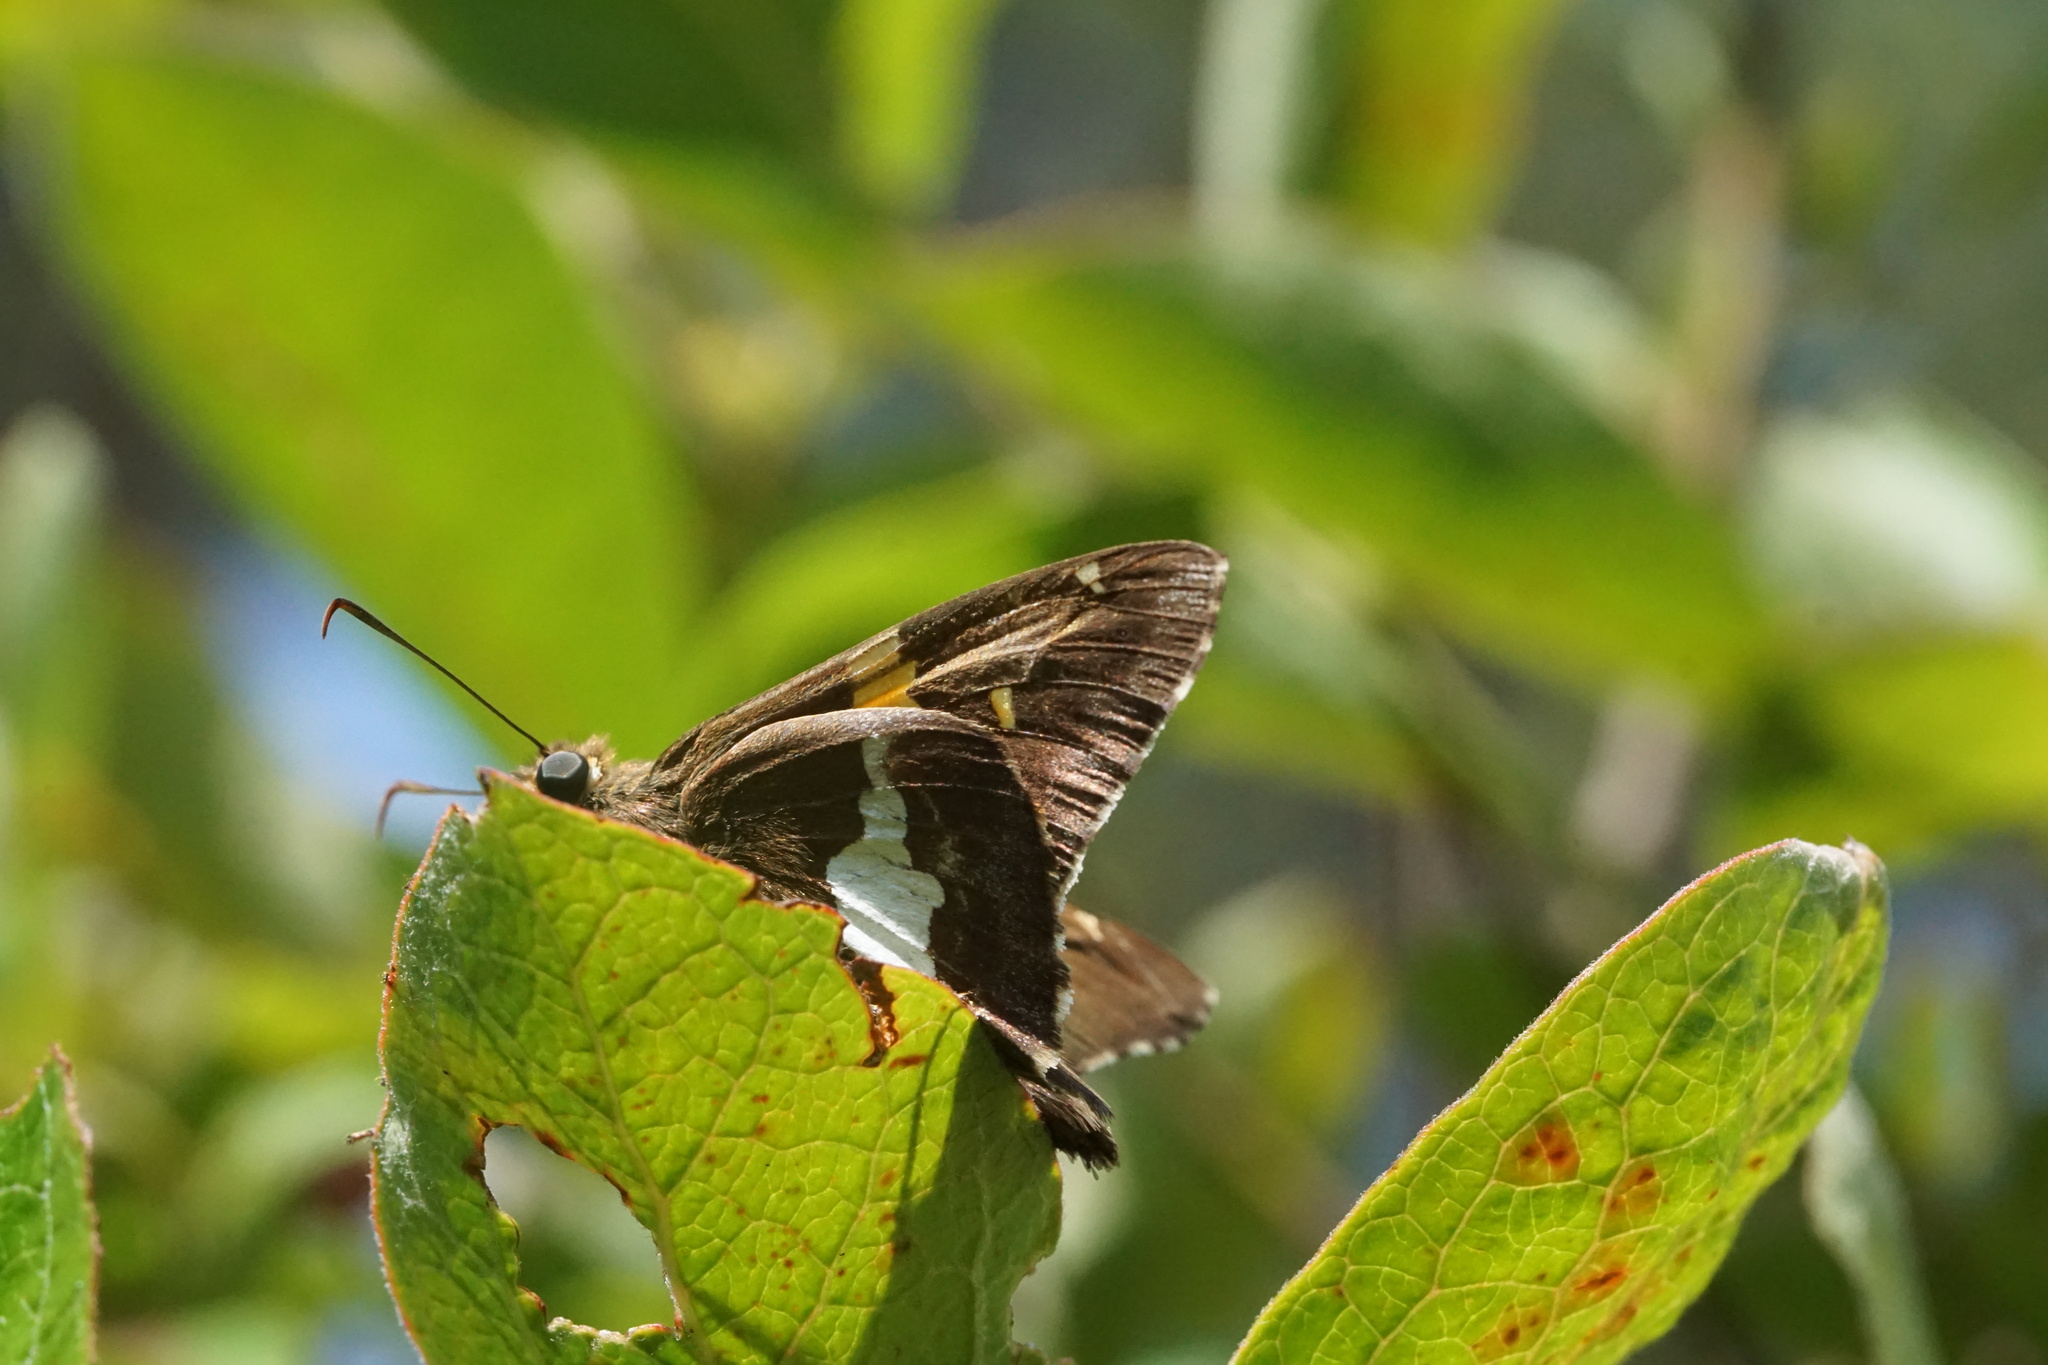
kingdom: Animalia
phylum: Arthropoda
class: Insecta
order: Lepidoptera
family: Hesperiidae
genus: Epargyreus
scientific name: Epargyreus clarus
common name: Silver-spotted skipper
